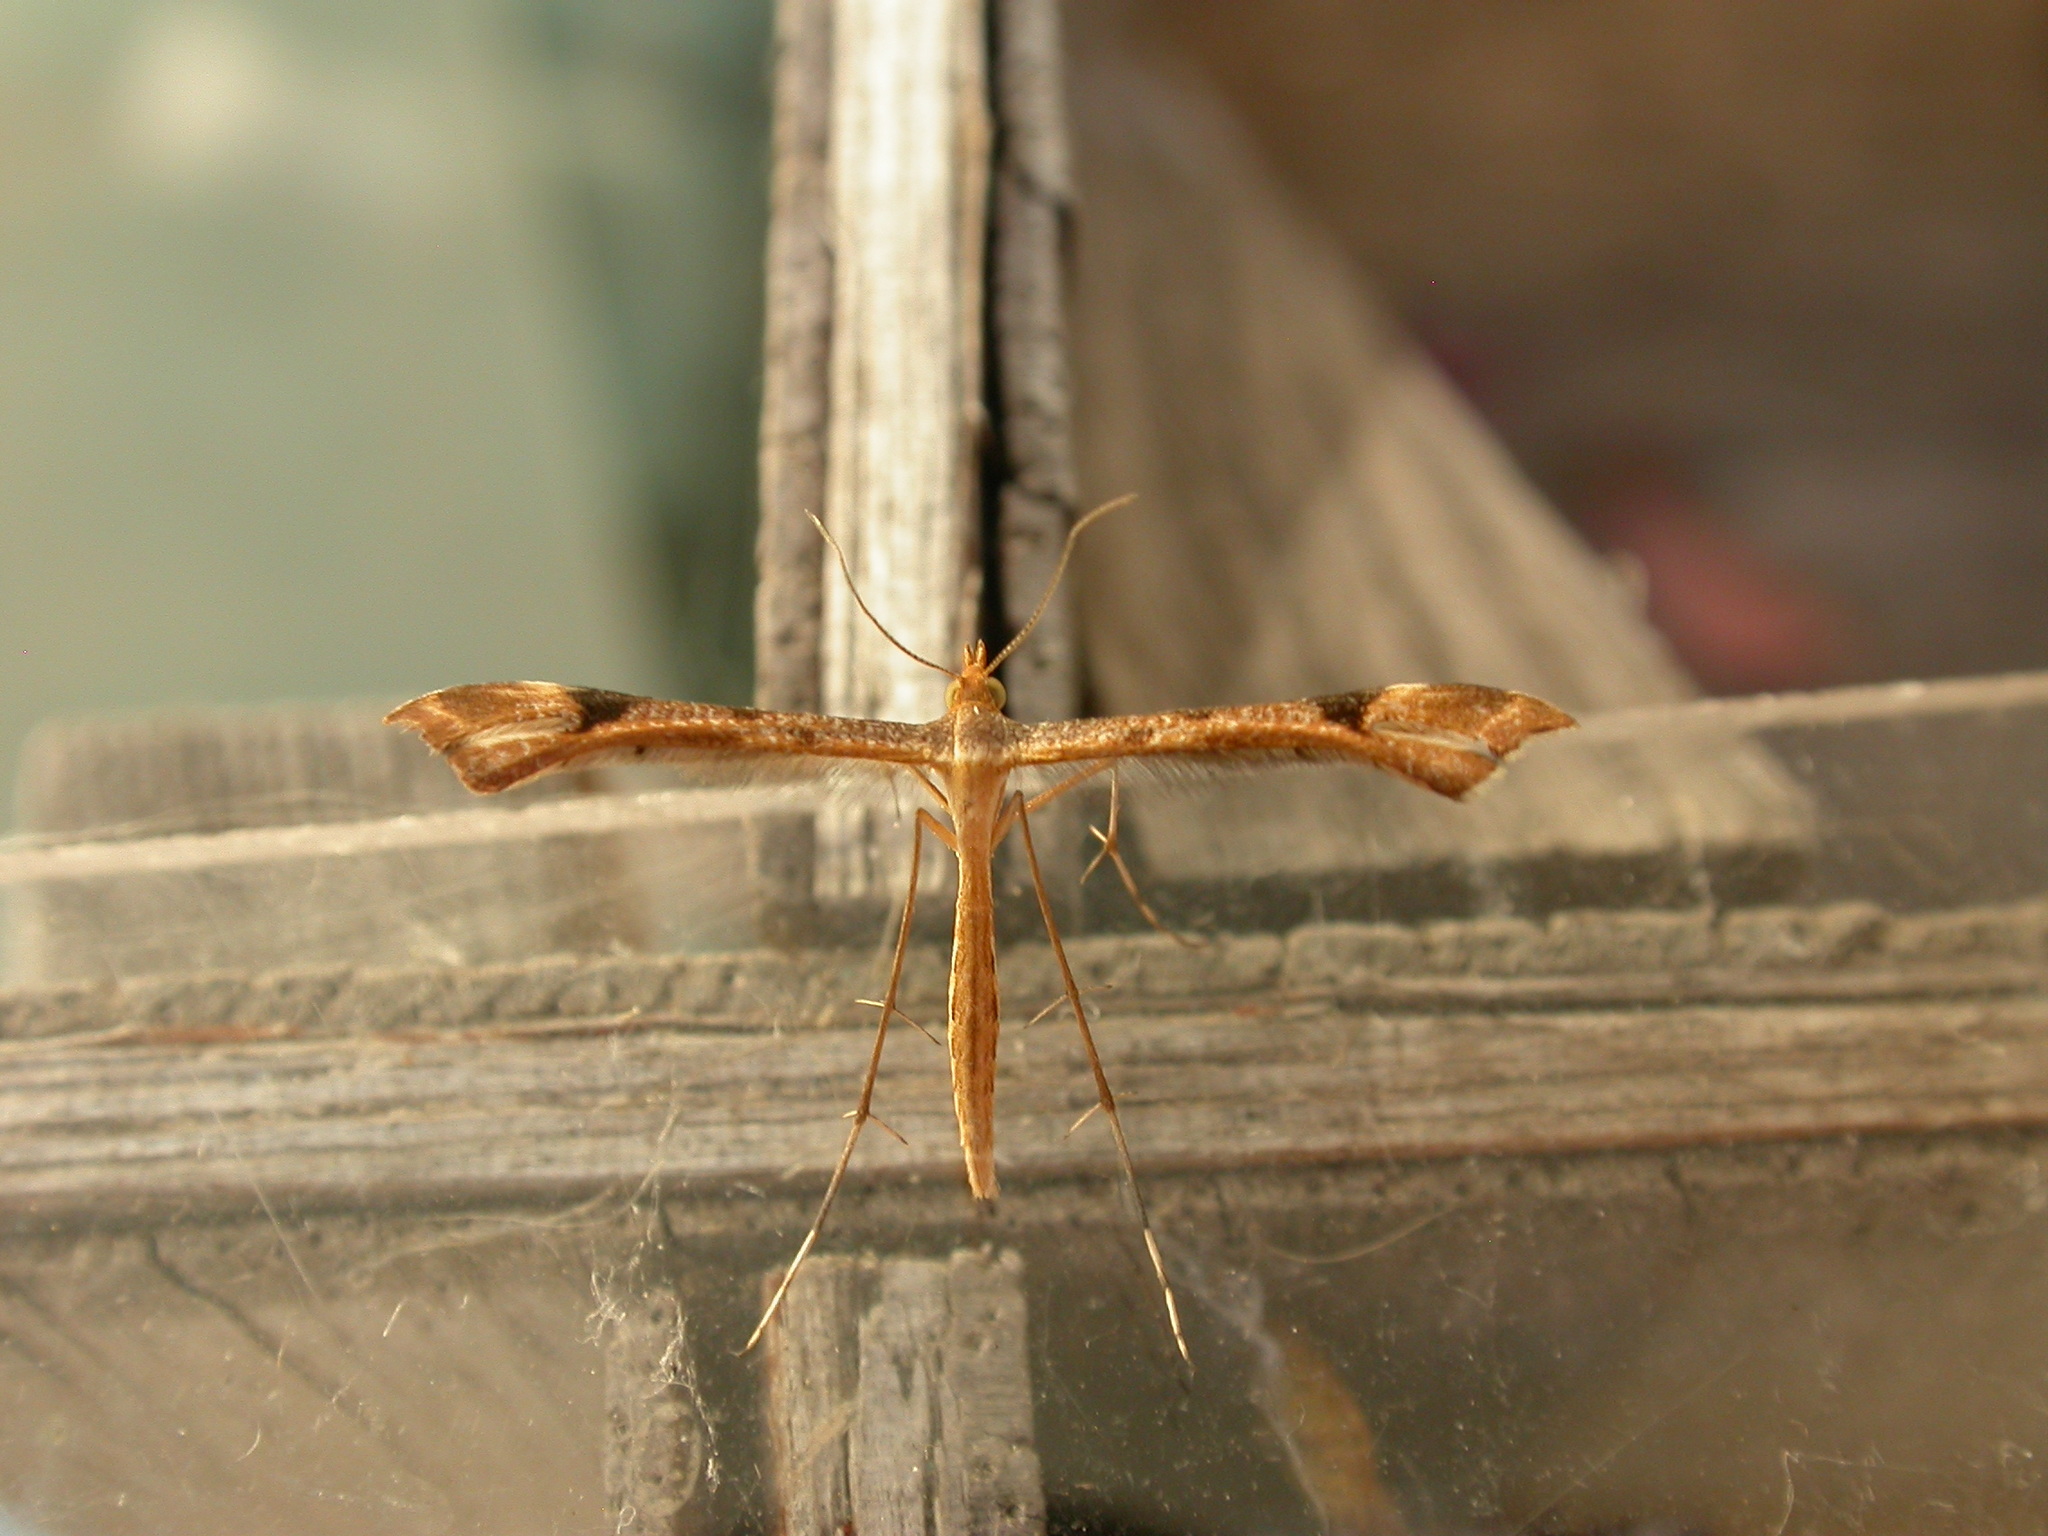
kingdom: Animalia
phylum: Arthropoda
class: Insecta
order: Lepidoptera
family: Pterophoridae
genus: Sinpunctiptilia
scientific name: Sinpunctiptilia emissalis
